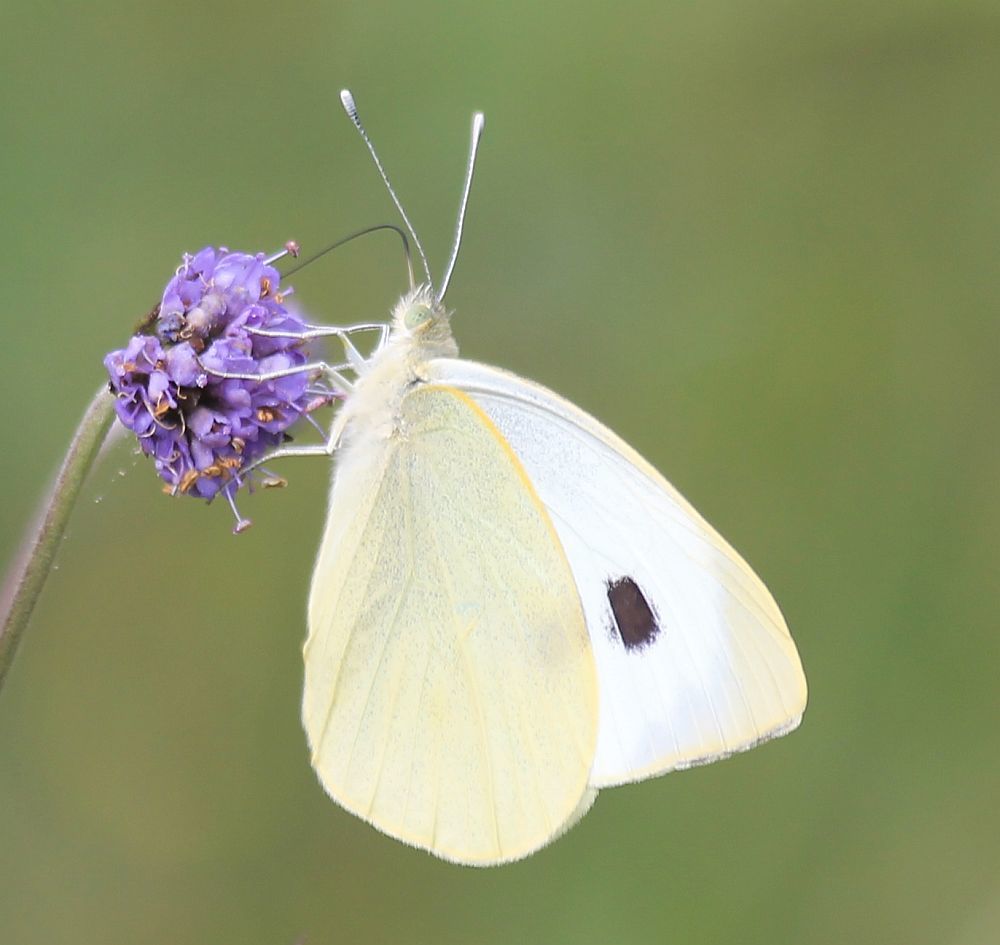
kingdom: Animalia
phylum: Arthropoda
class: Insecta
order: Lepidoptera
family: Pieridae
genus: Pieris
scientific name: Pieris brassicae
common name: Large white
